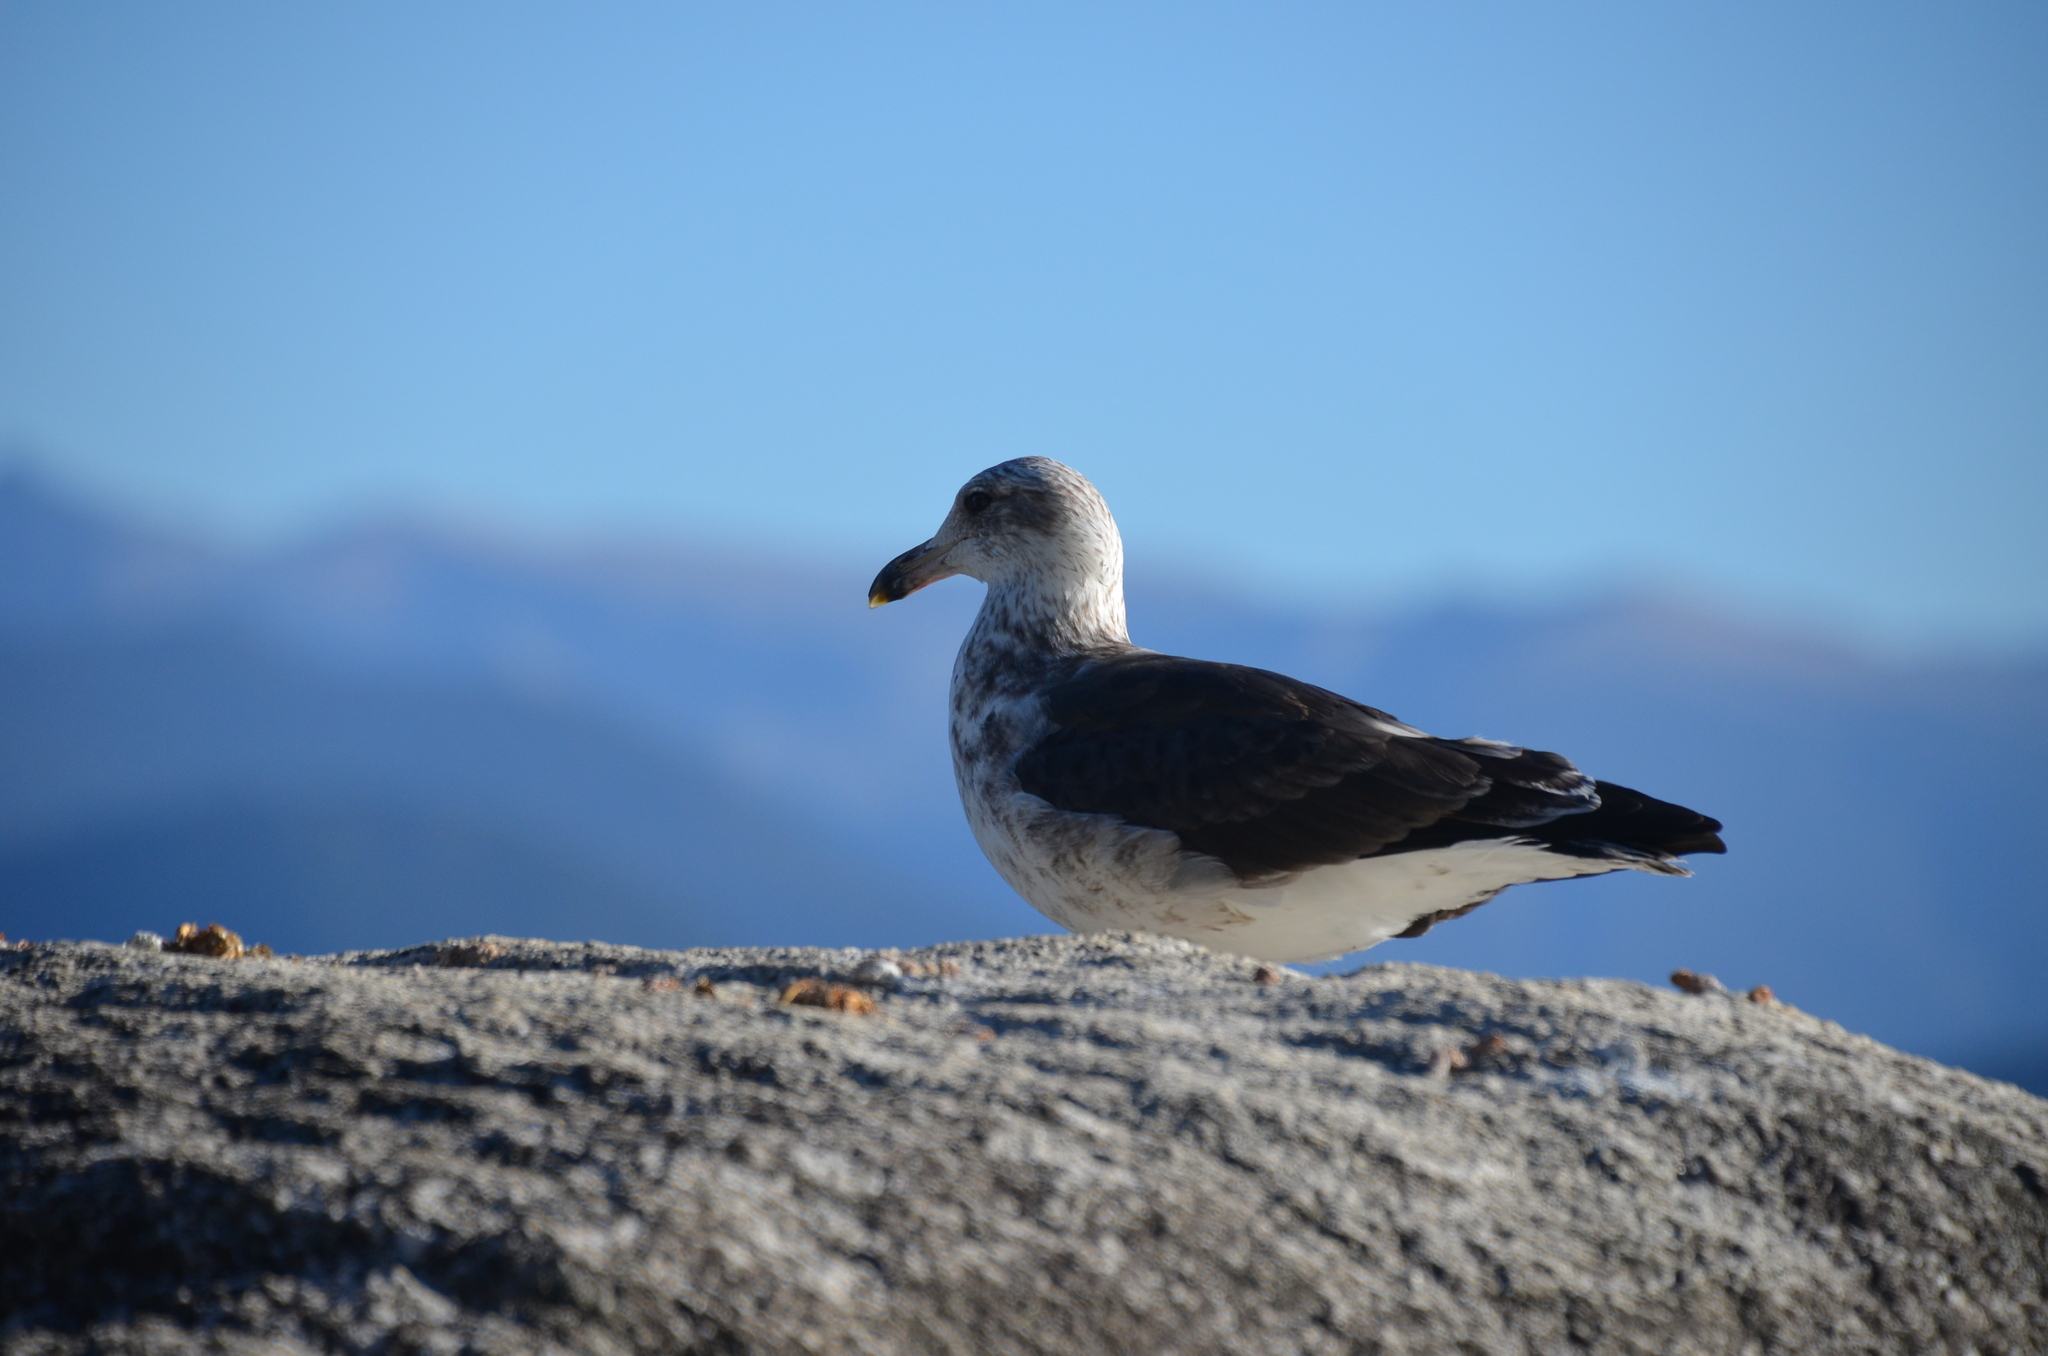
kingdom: Animalia
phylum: Chordata
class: Aves
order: Charadriiformes
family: Laridae
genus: Larus
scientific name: Larus dominicanus
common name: Kelp gull
